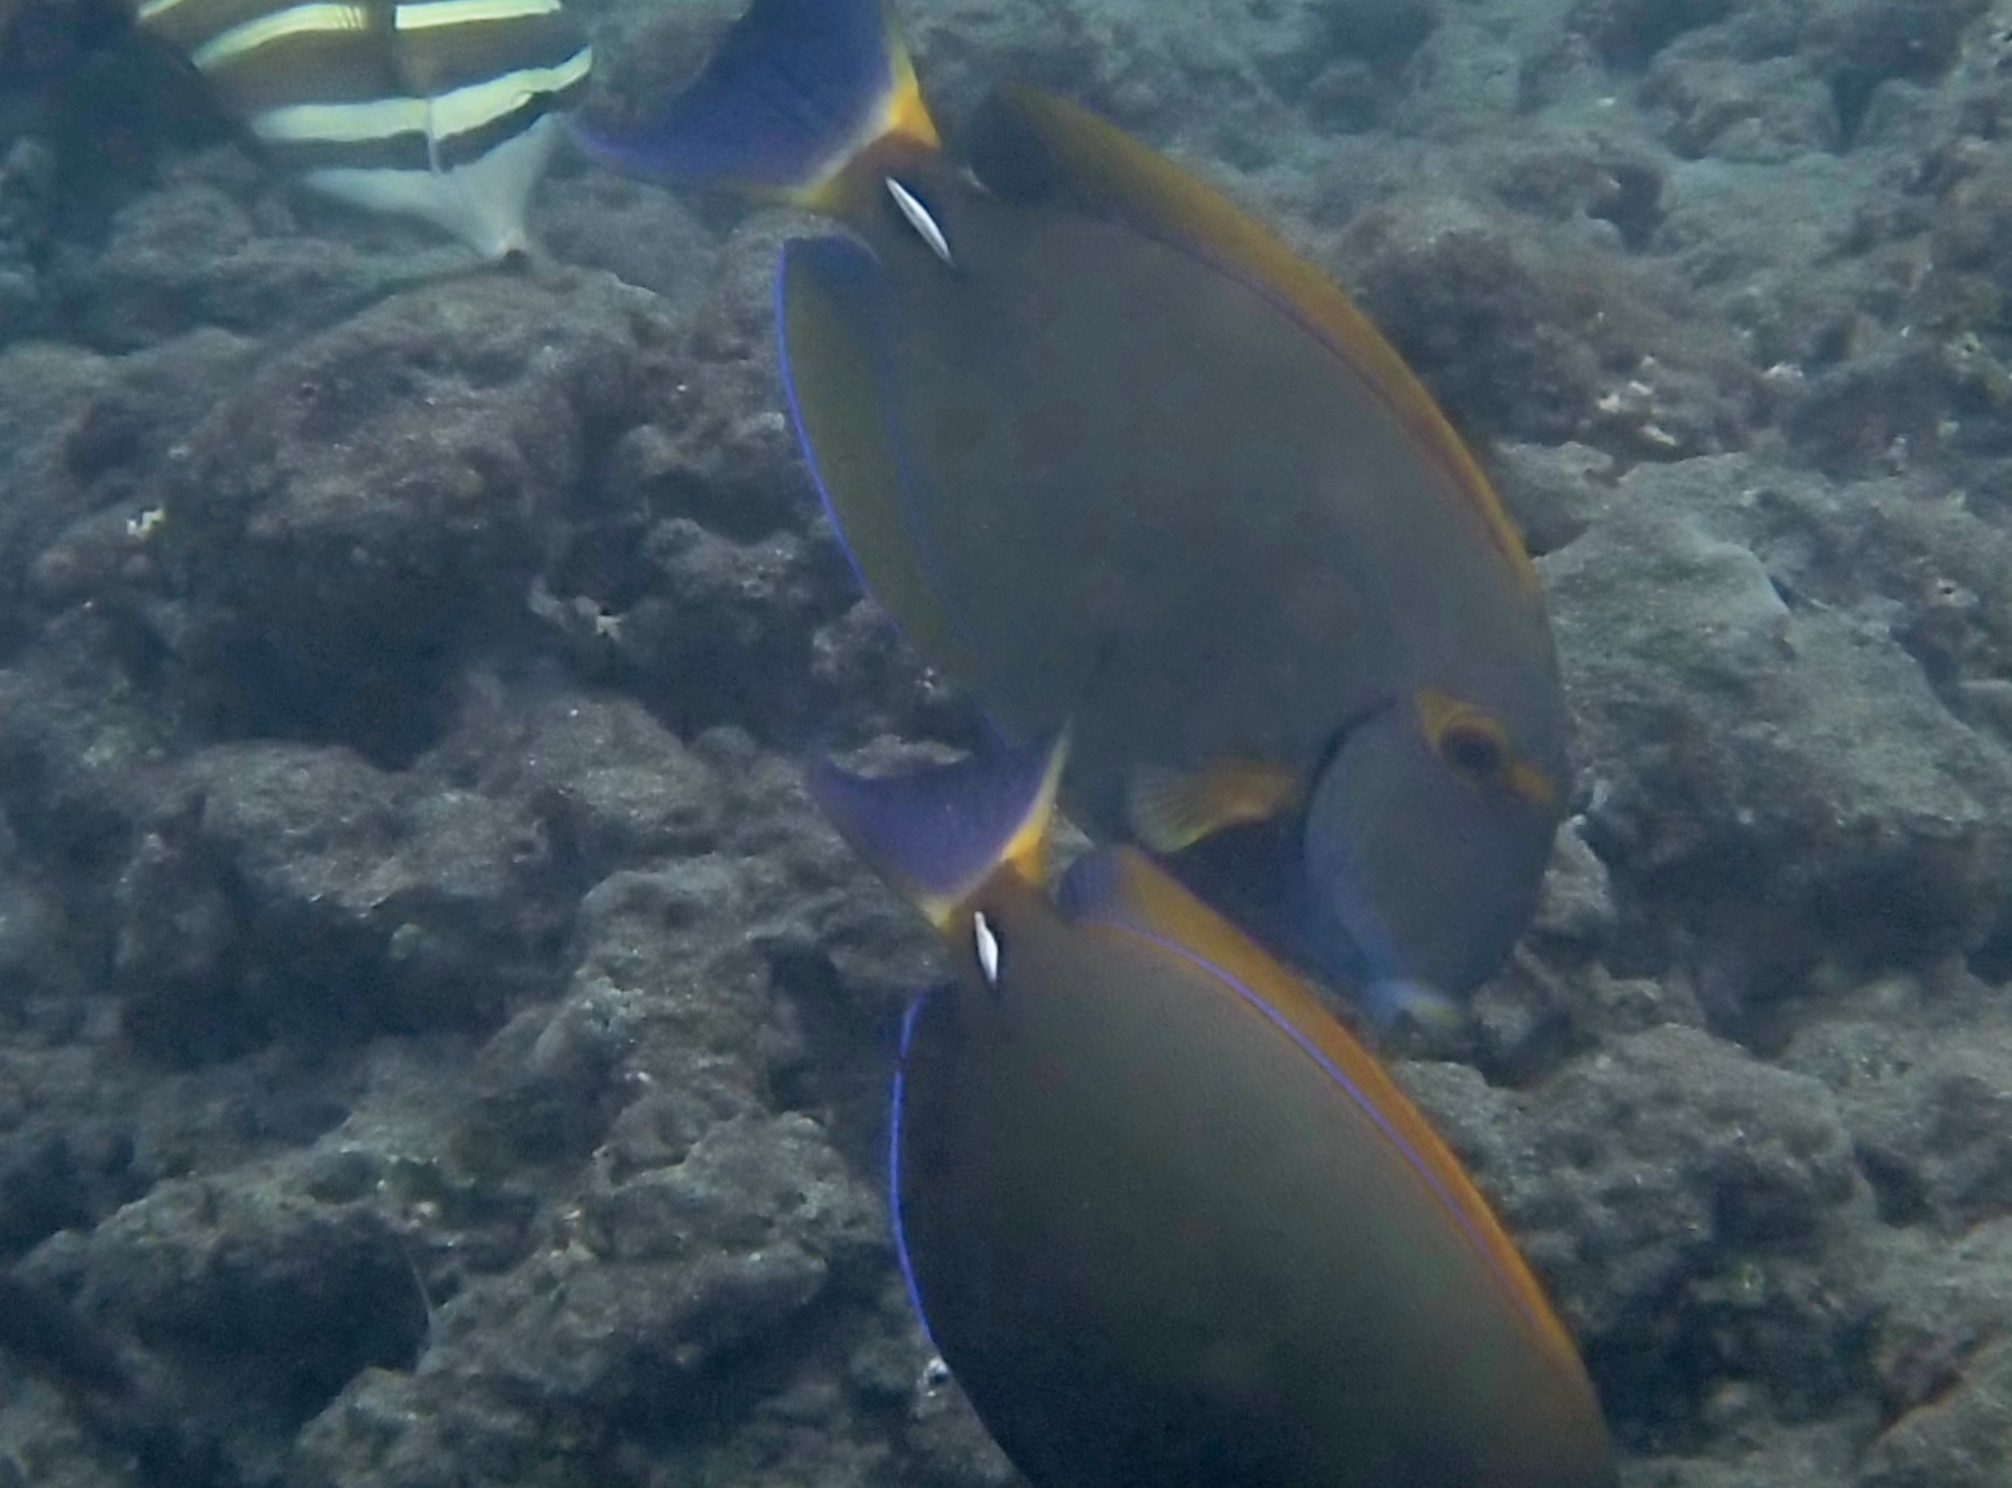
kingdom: Animalia
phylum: Chordata
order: Perciformes
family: Acanthuridae
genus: Acanthurus
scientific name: Acanthurus dussumieri
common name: Dussumier's surgeonfish
